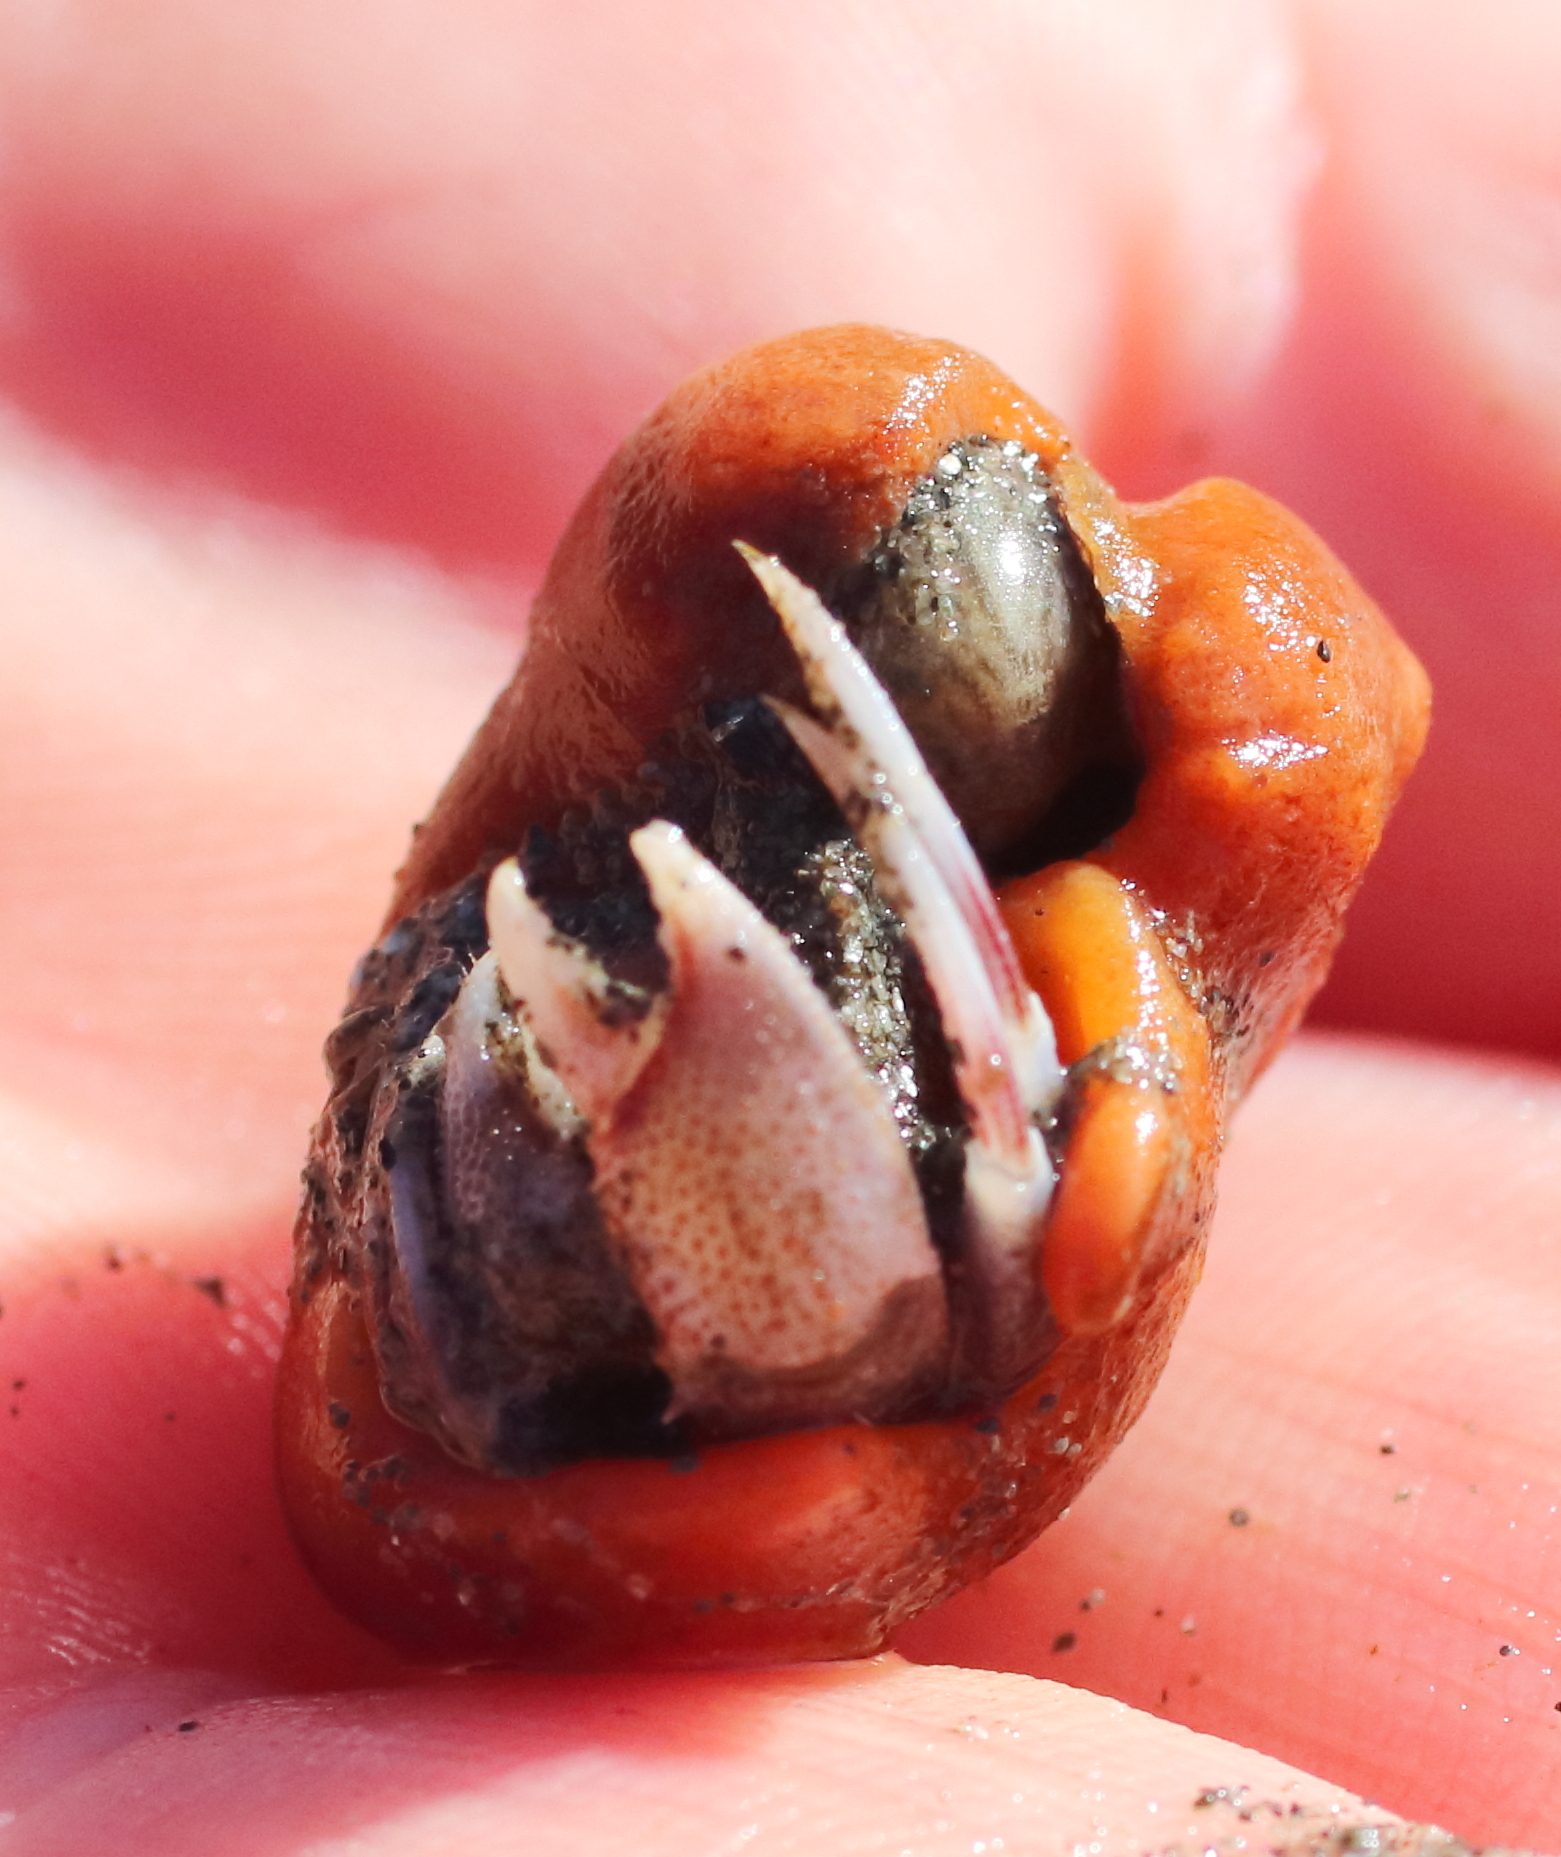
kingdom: Animalia
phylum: Arthropoda
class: Malacostraca
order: Decapoda
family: Paguridae
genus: Pagurus
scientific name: Pagurus ochotensis
